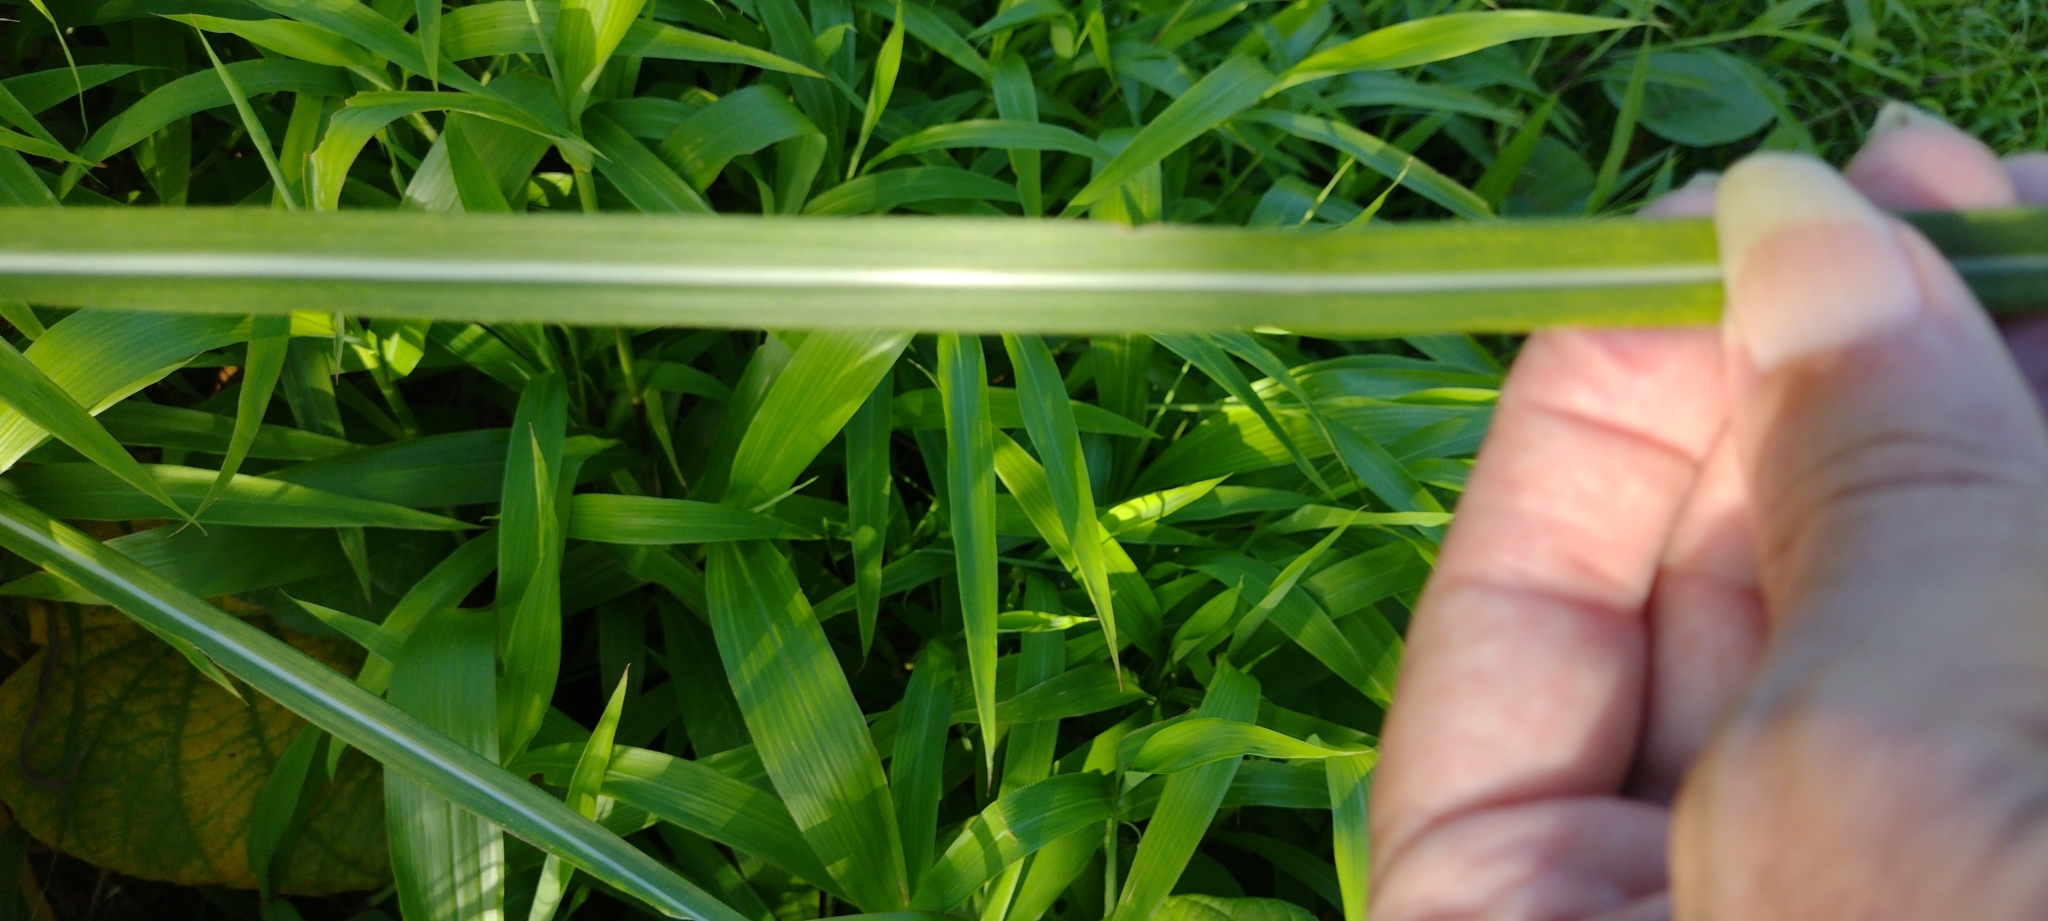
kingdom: Plantae
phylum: Tracheophyta
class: Liliopsida
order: Poales
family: Poaceae
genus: Saccharum
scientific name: Saccharum spontaneum
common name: Wild sugarcane
